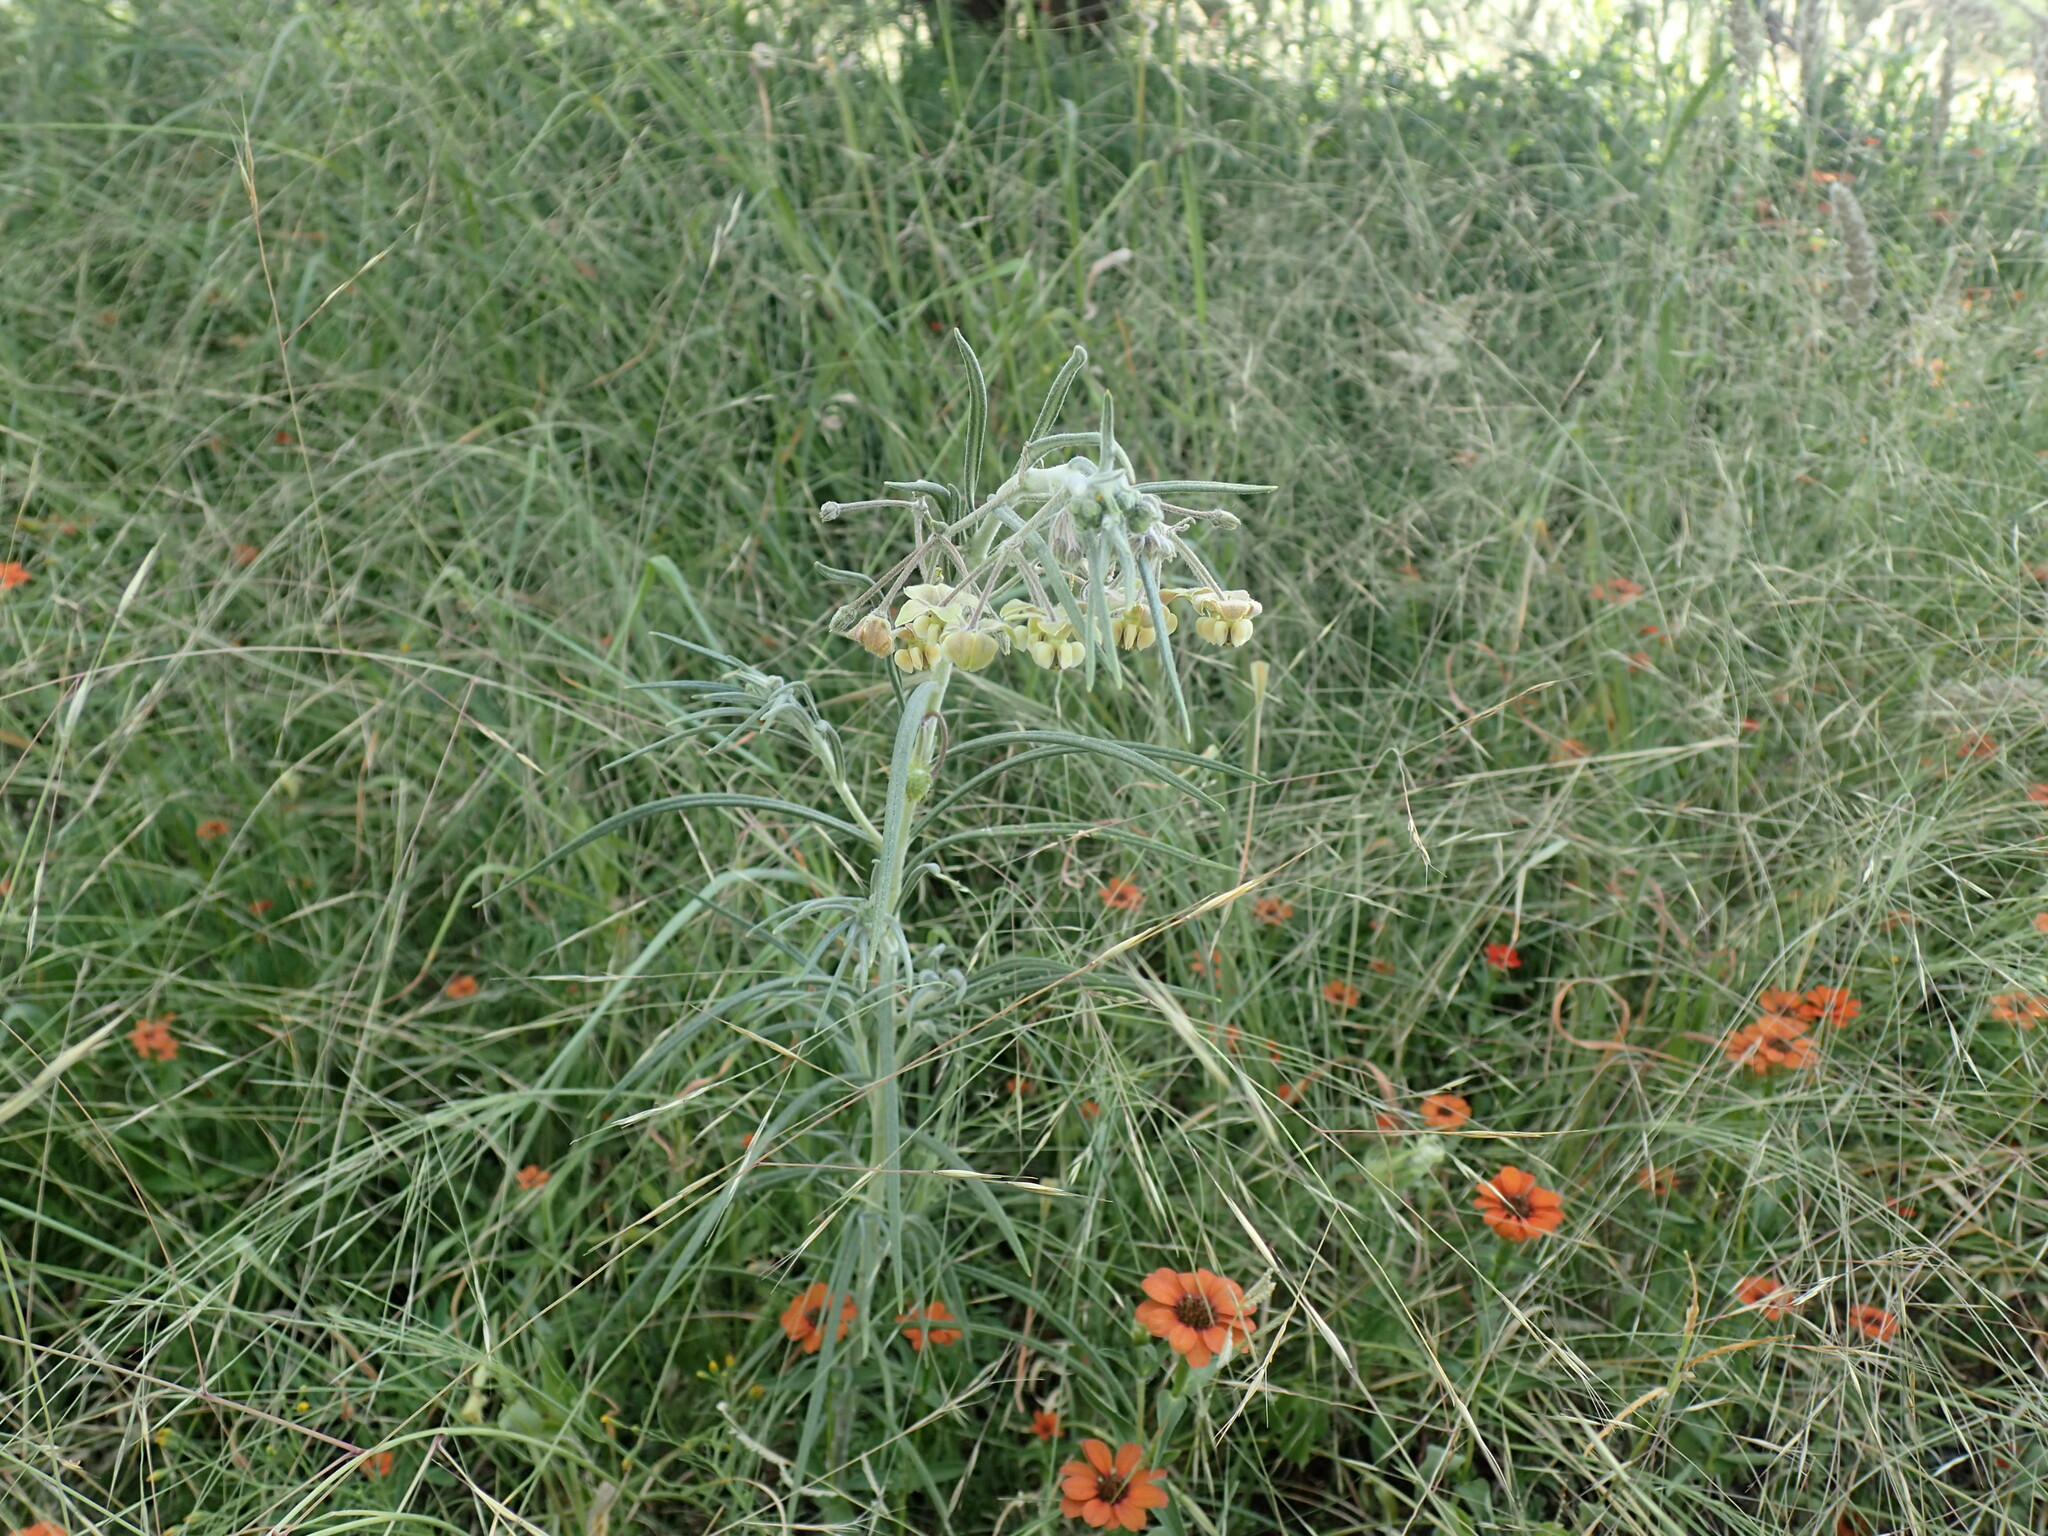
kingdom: Plantae
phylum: Tracheophyta
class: Magnoliopsida
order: Gentianales
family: Apocynaceae
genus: Gomphocarpus
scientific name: Gomphocarpus tomentosus
